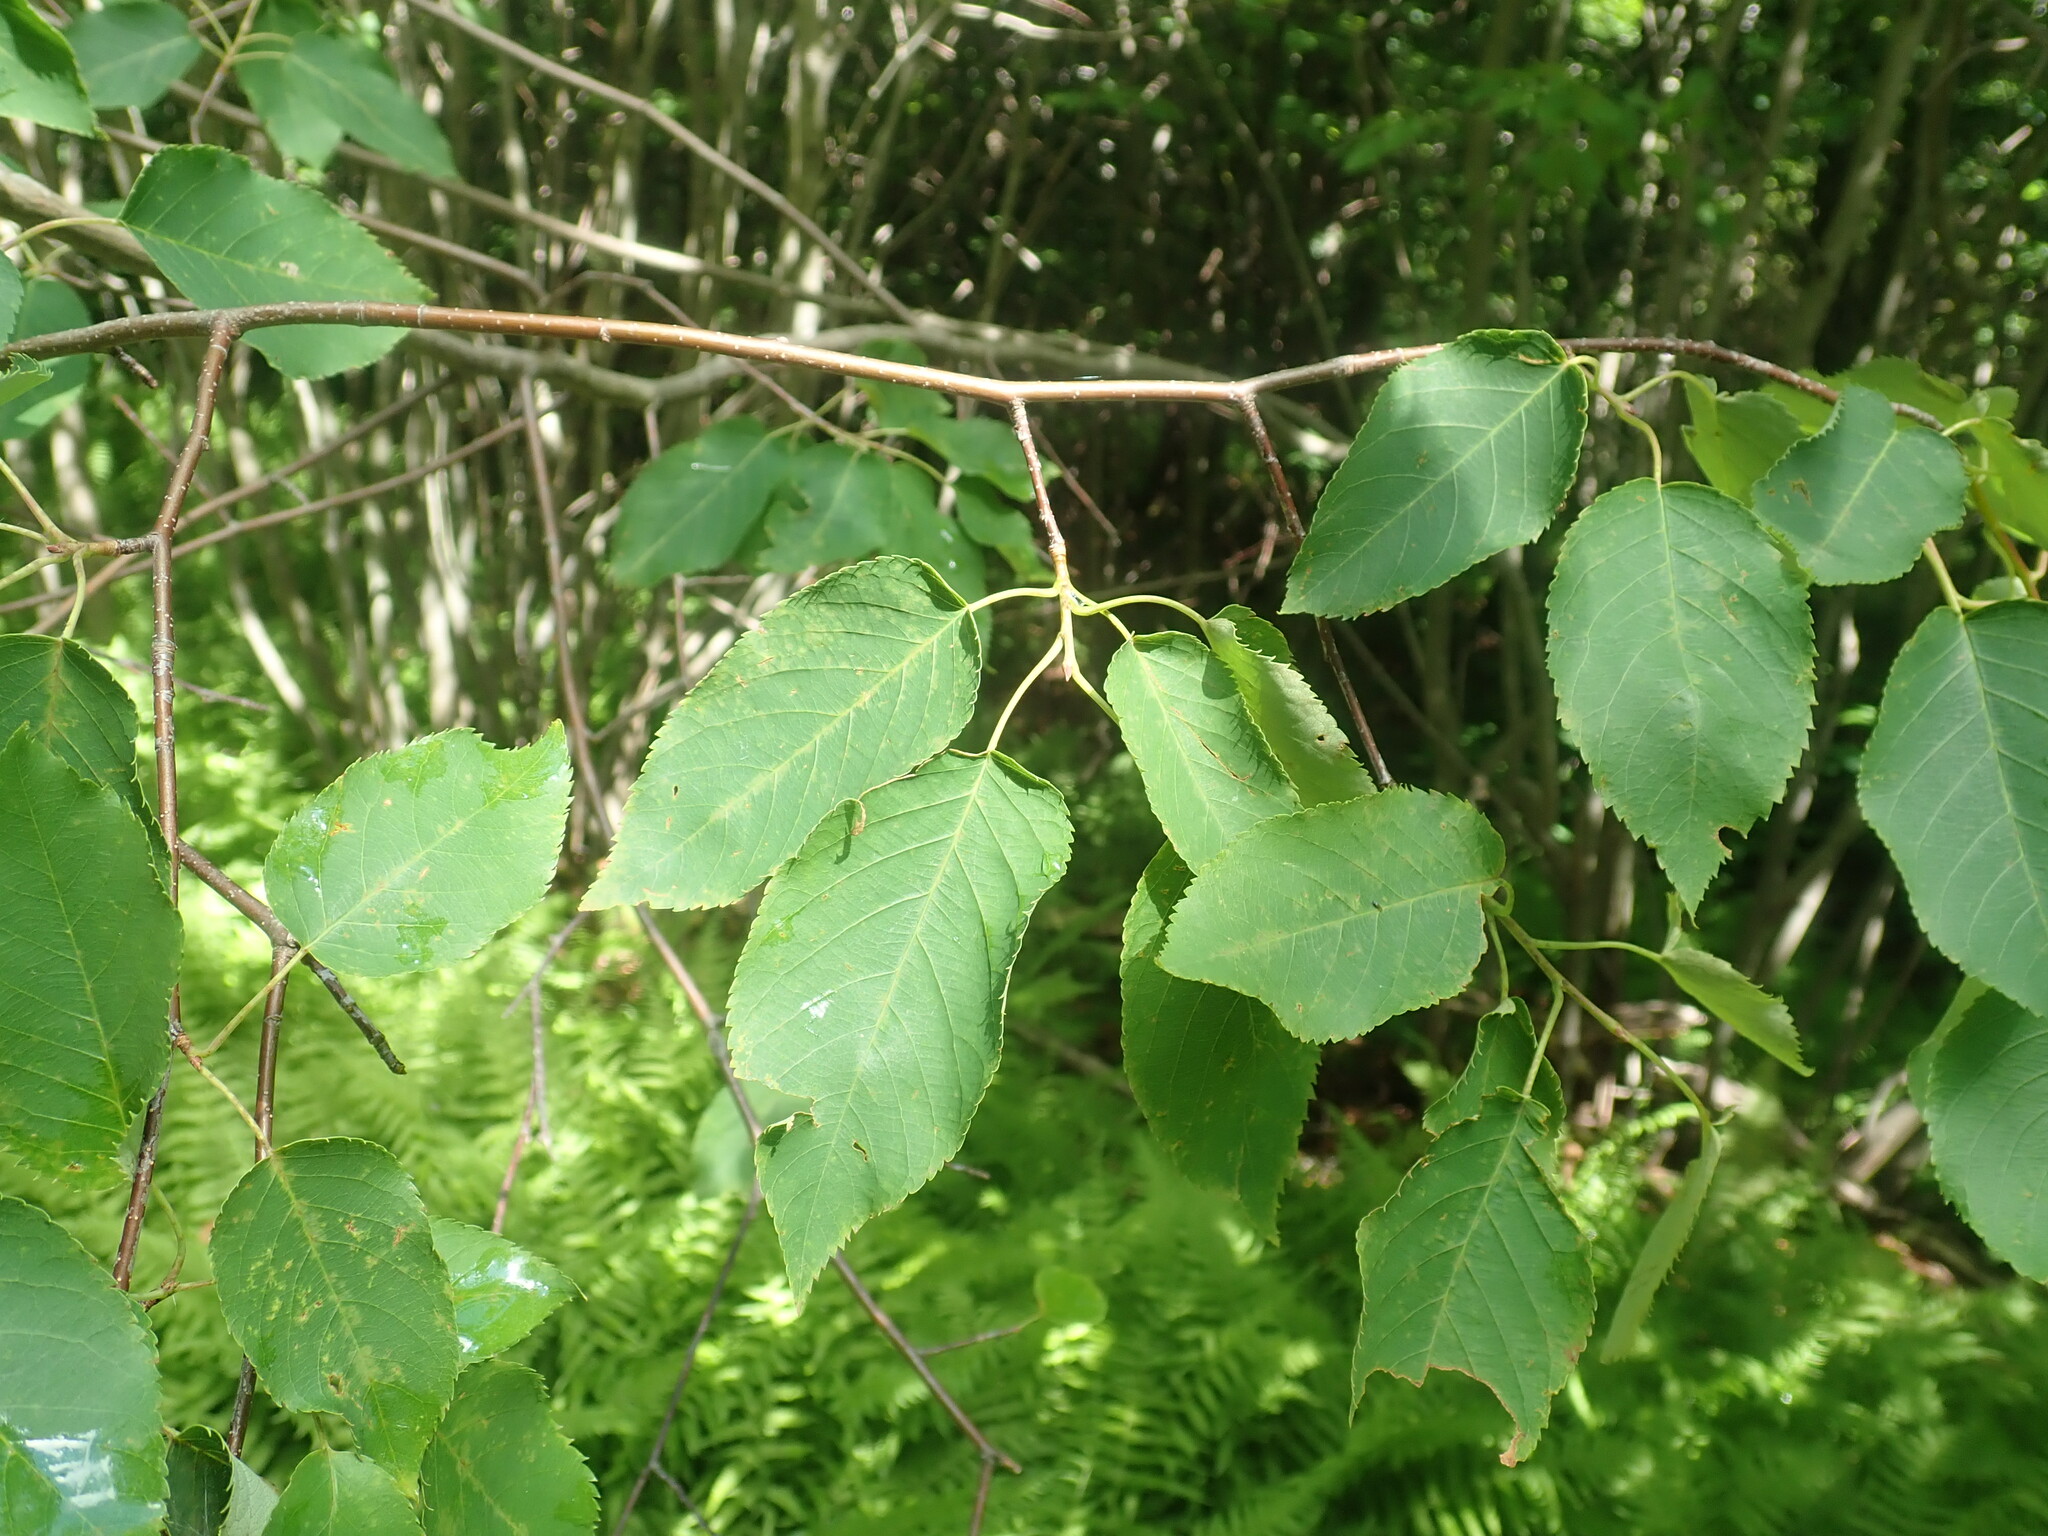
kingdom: Plantae
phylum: Tracheophyta
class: Magnoliopsida
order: Rosales
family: Rosaceae
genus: Amelanchier
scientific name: Amelanchier
